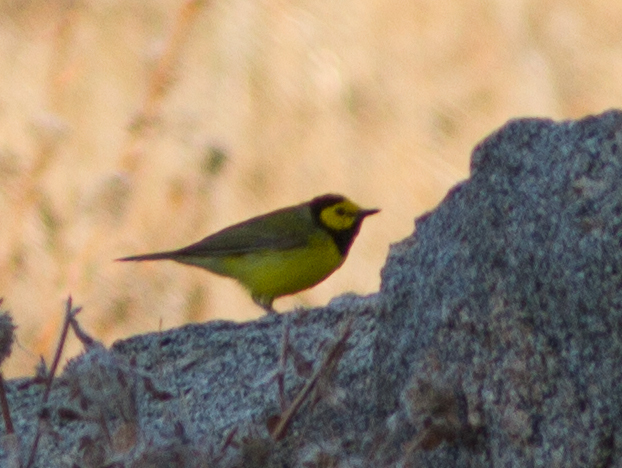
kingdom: Animalia
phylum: Chordata
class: Aves
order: Passeriformes
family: Parulidae
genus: Setophaga
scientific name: Setophaga citrina
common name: Hooded warbler
